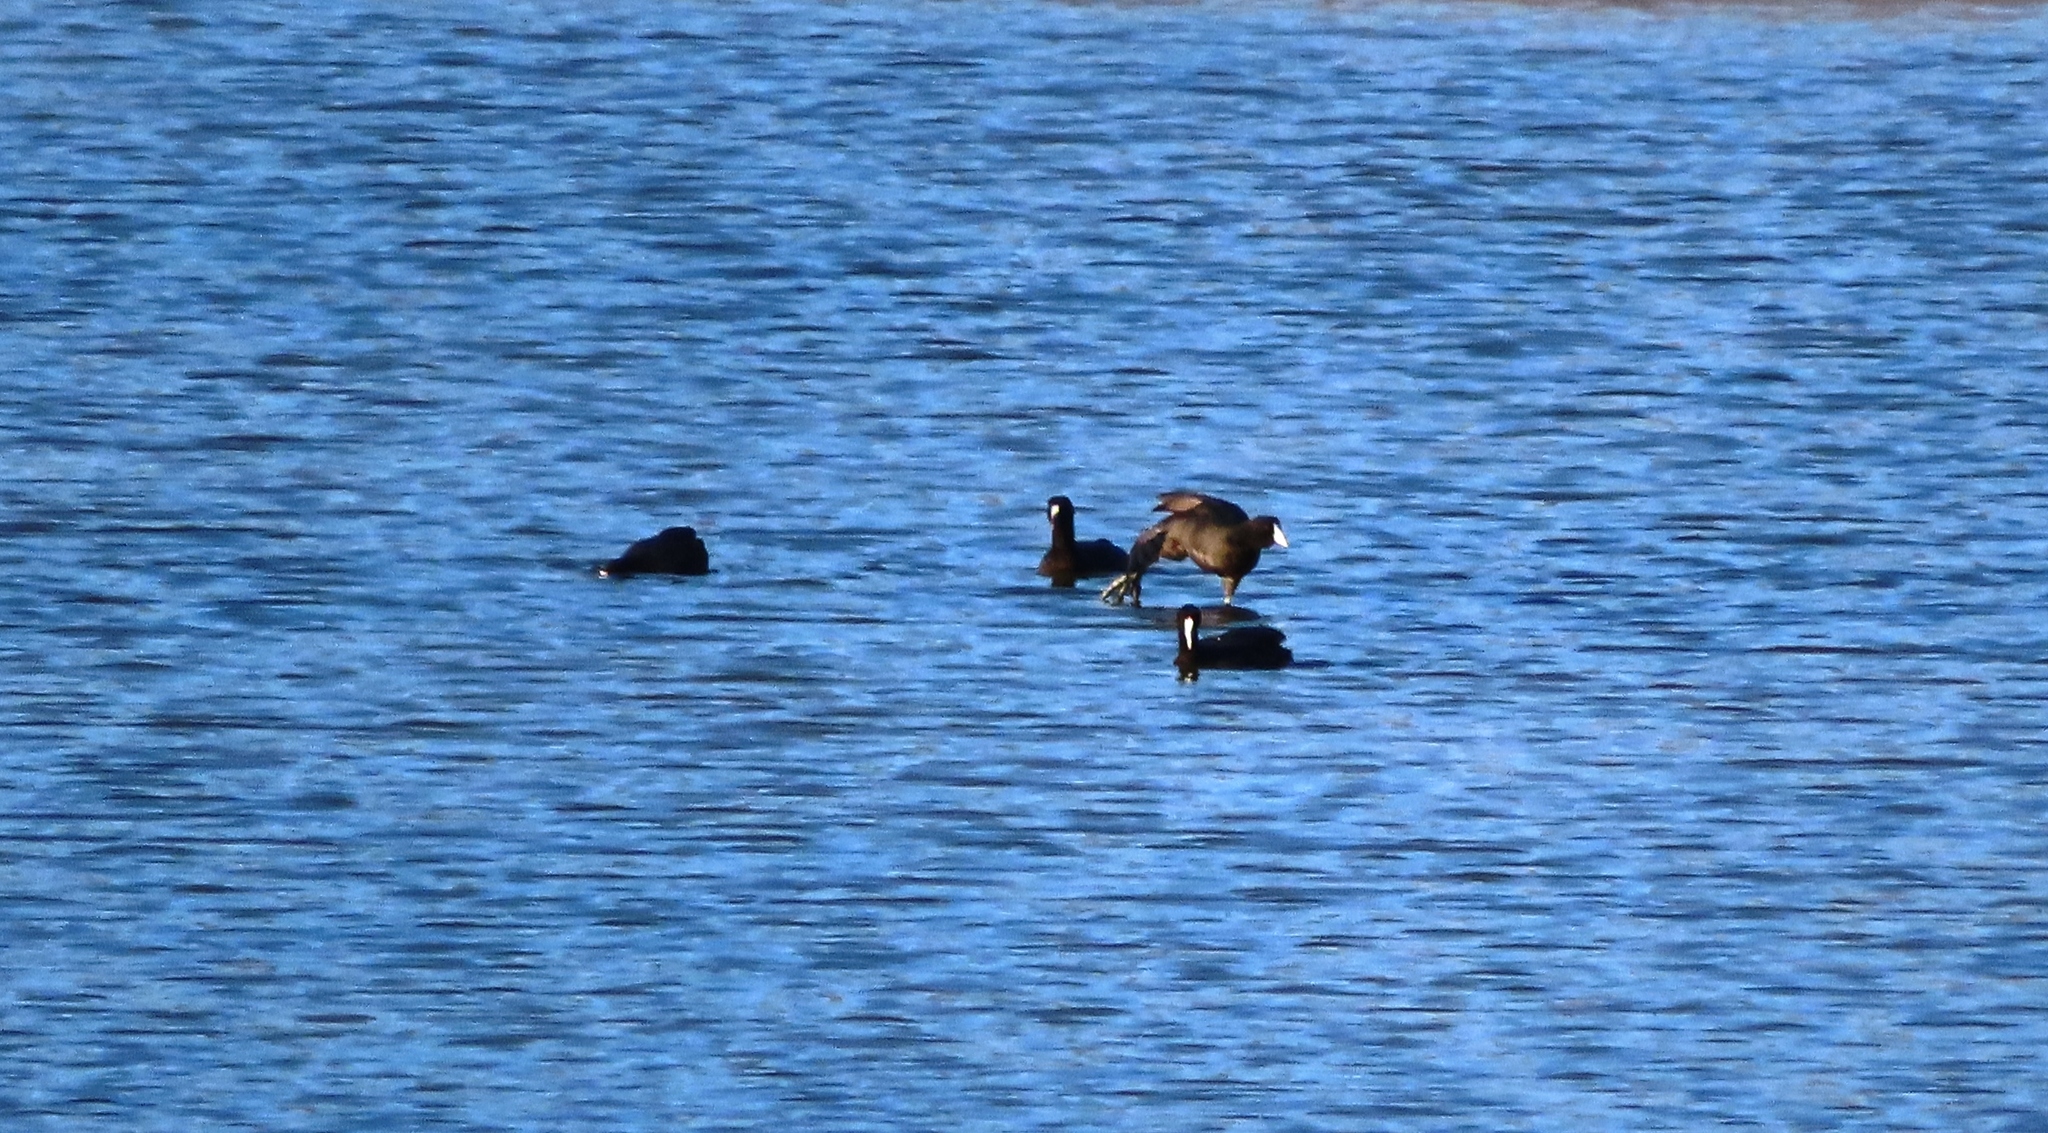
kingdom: Animalia
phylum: Chordata
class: Aves
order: Gruiformes
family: Rallidae
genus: Fulica
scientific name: Fulica cristata
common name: Red-knobbed coot
